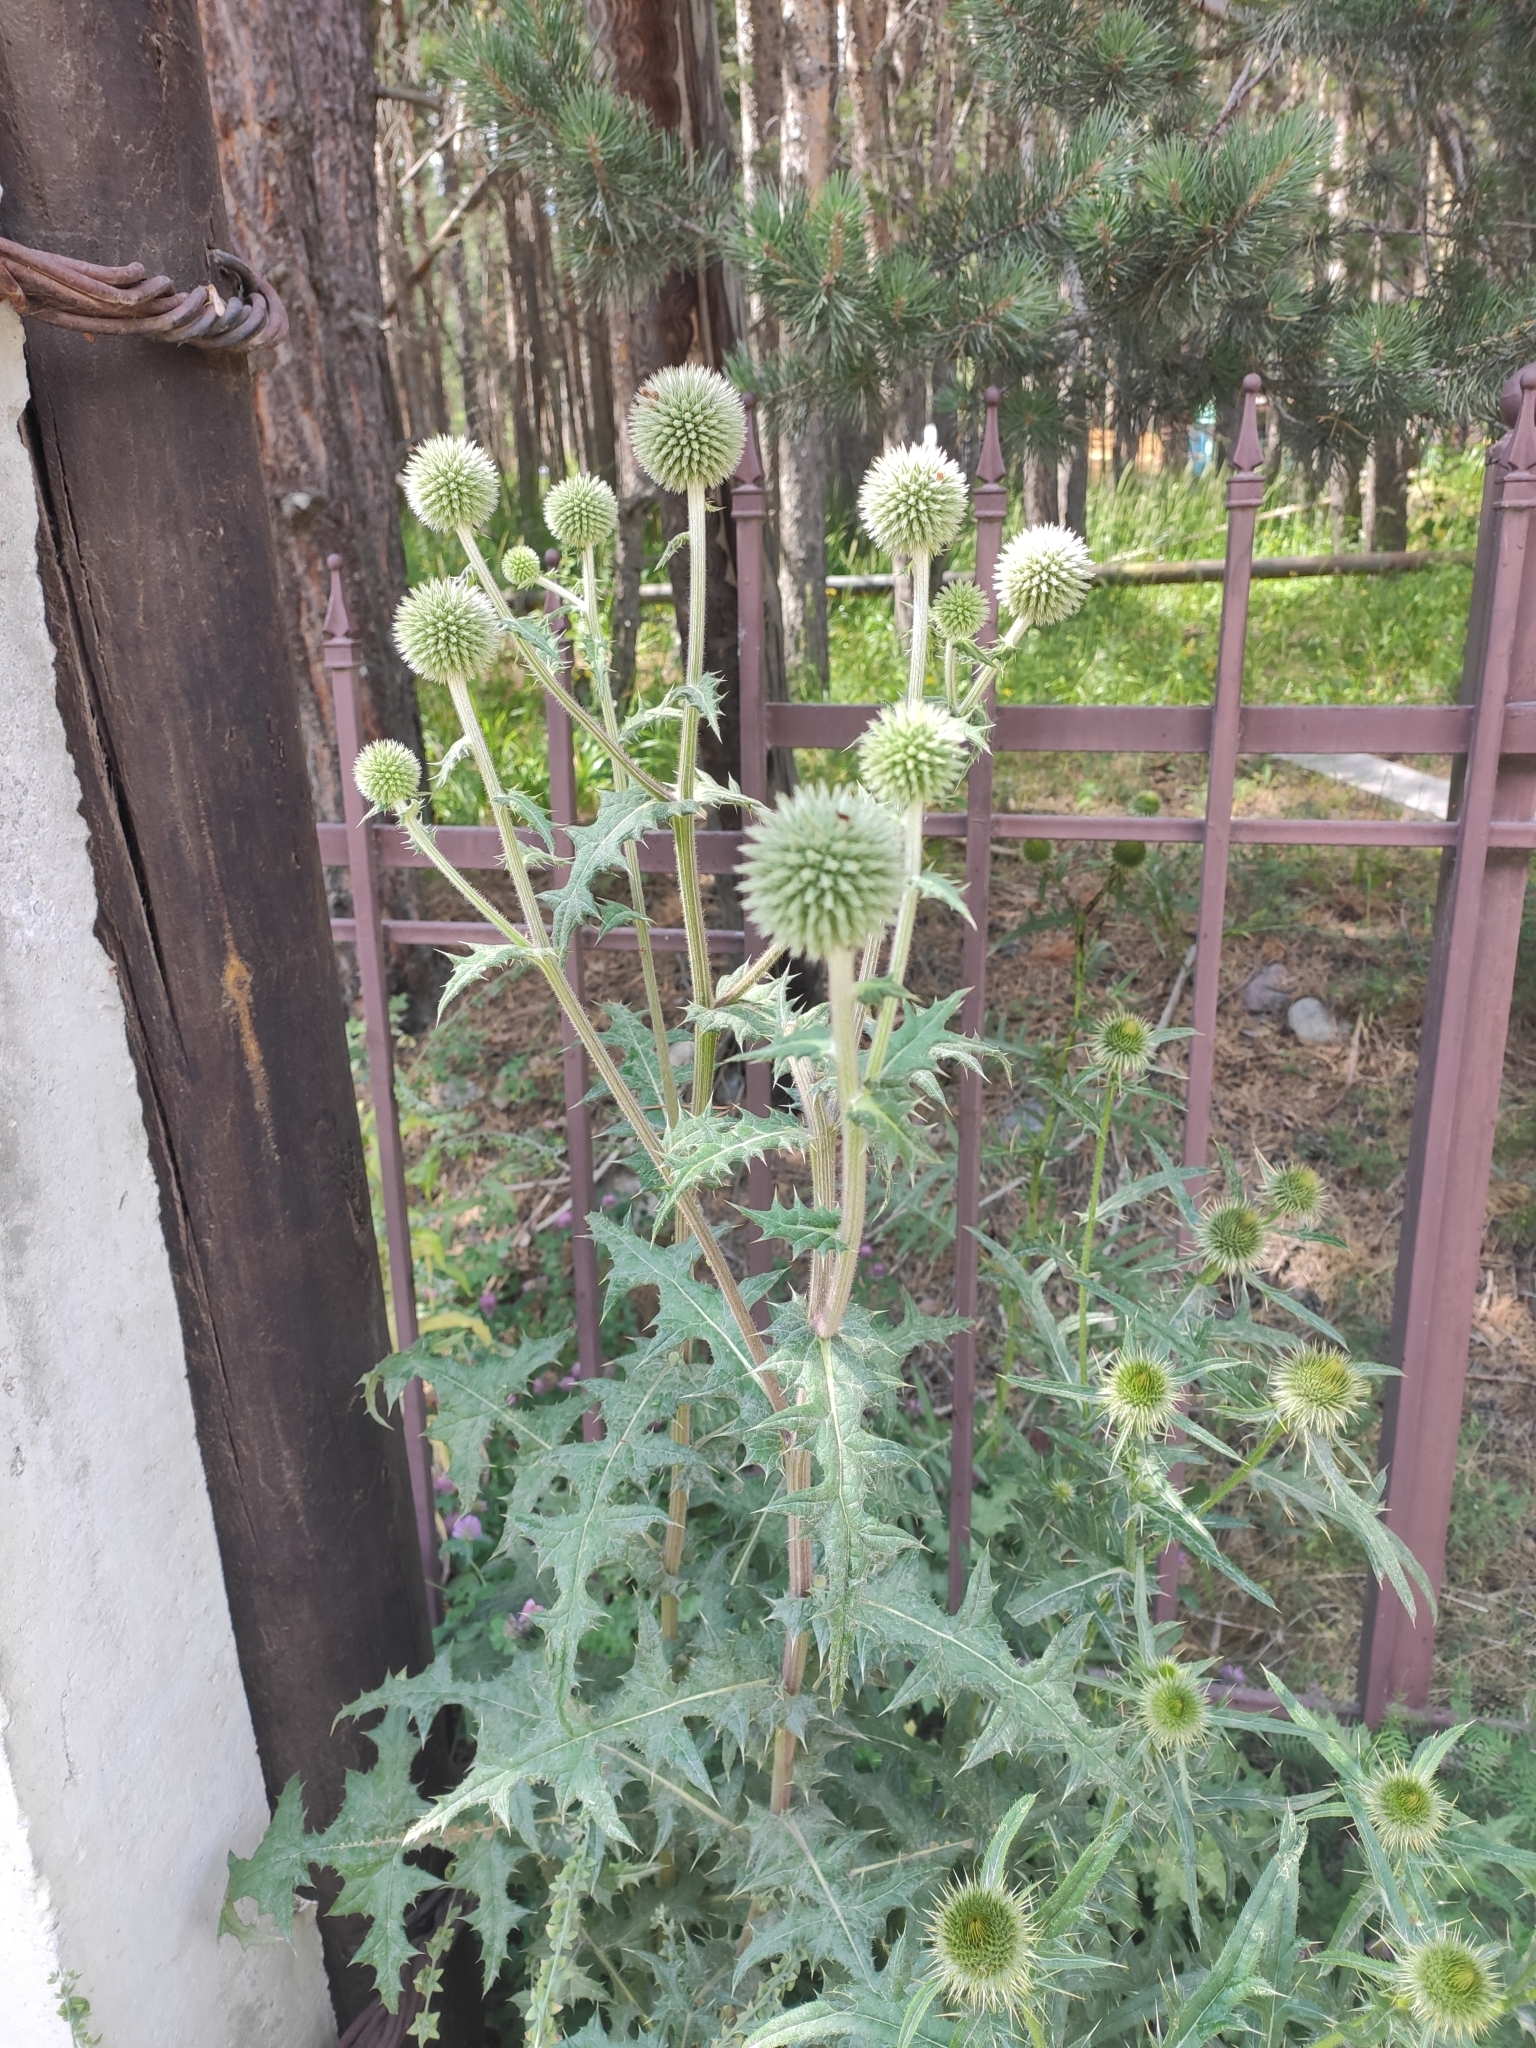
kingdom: Plantae
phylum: Tracheophyta
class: Magnoliopsida
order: Asterales
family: Asteraceae
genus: Echinops
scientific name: Echinops sphaerocephalus
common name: Glandular globe-thistle
